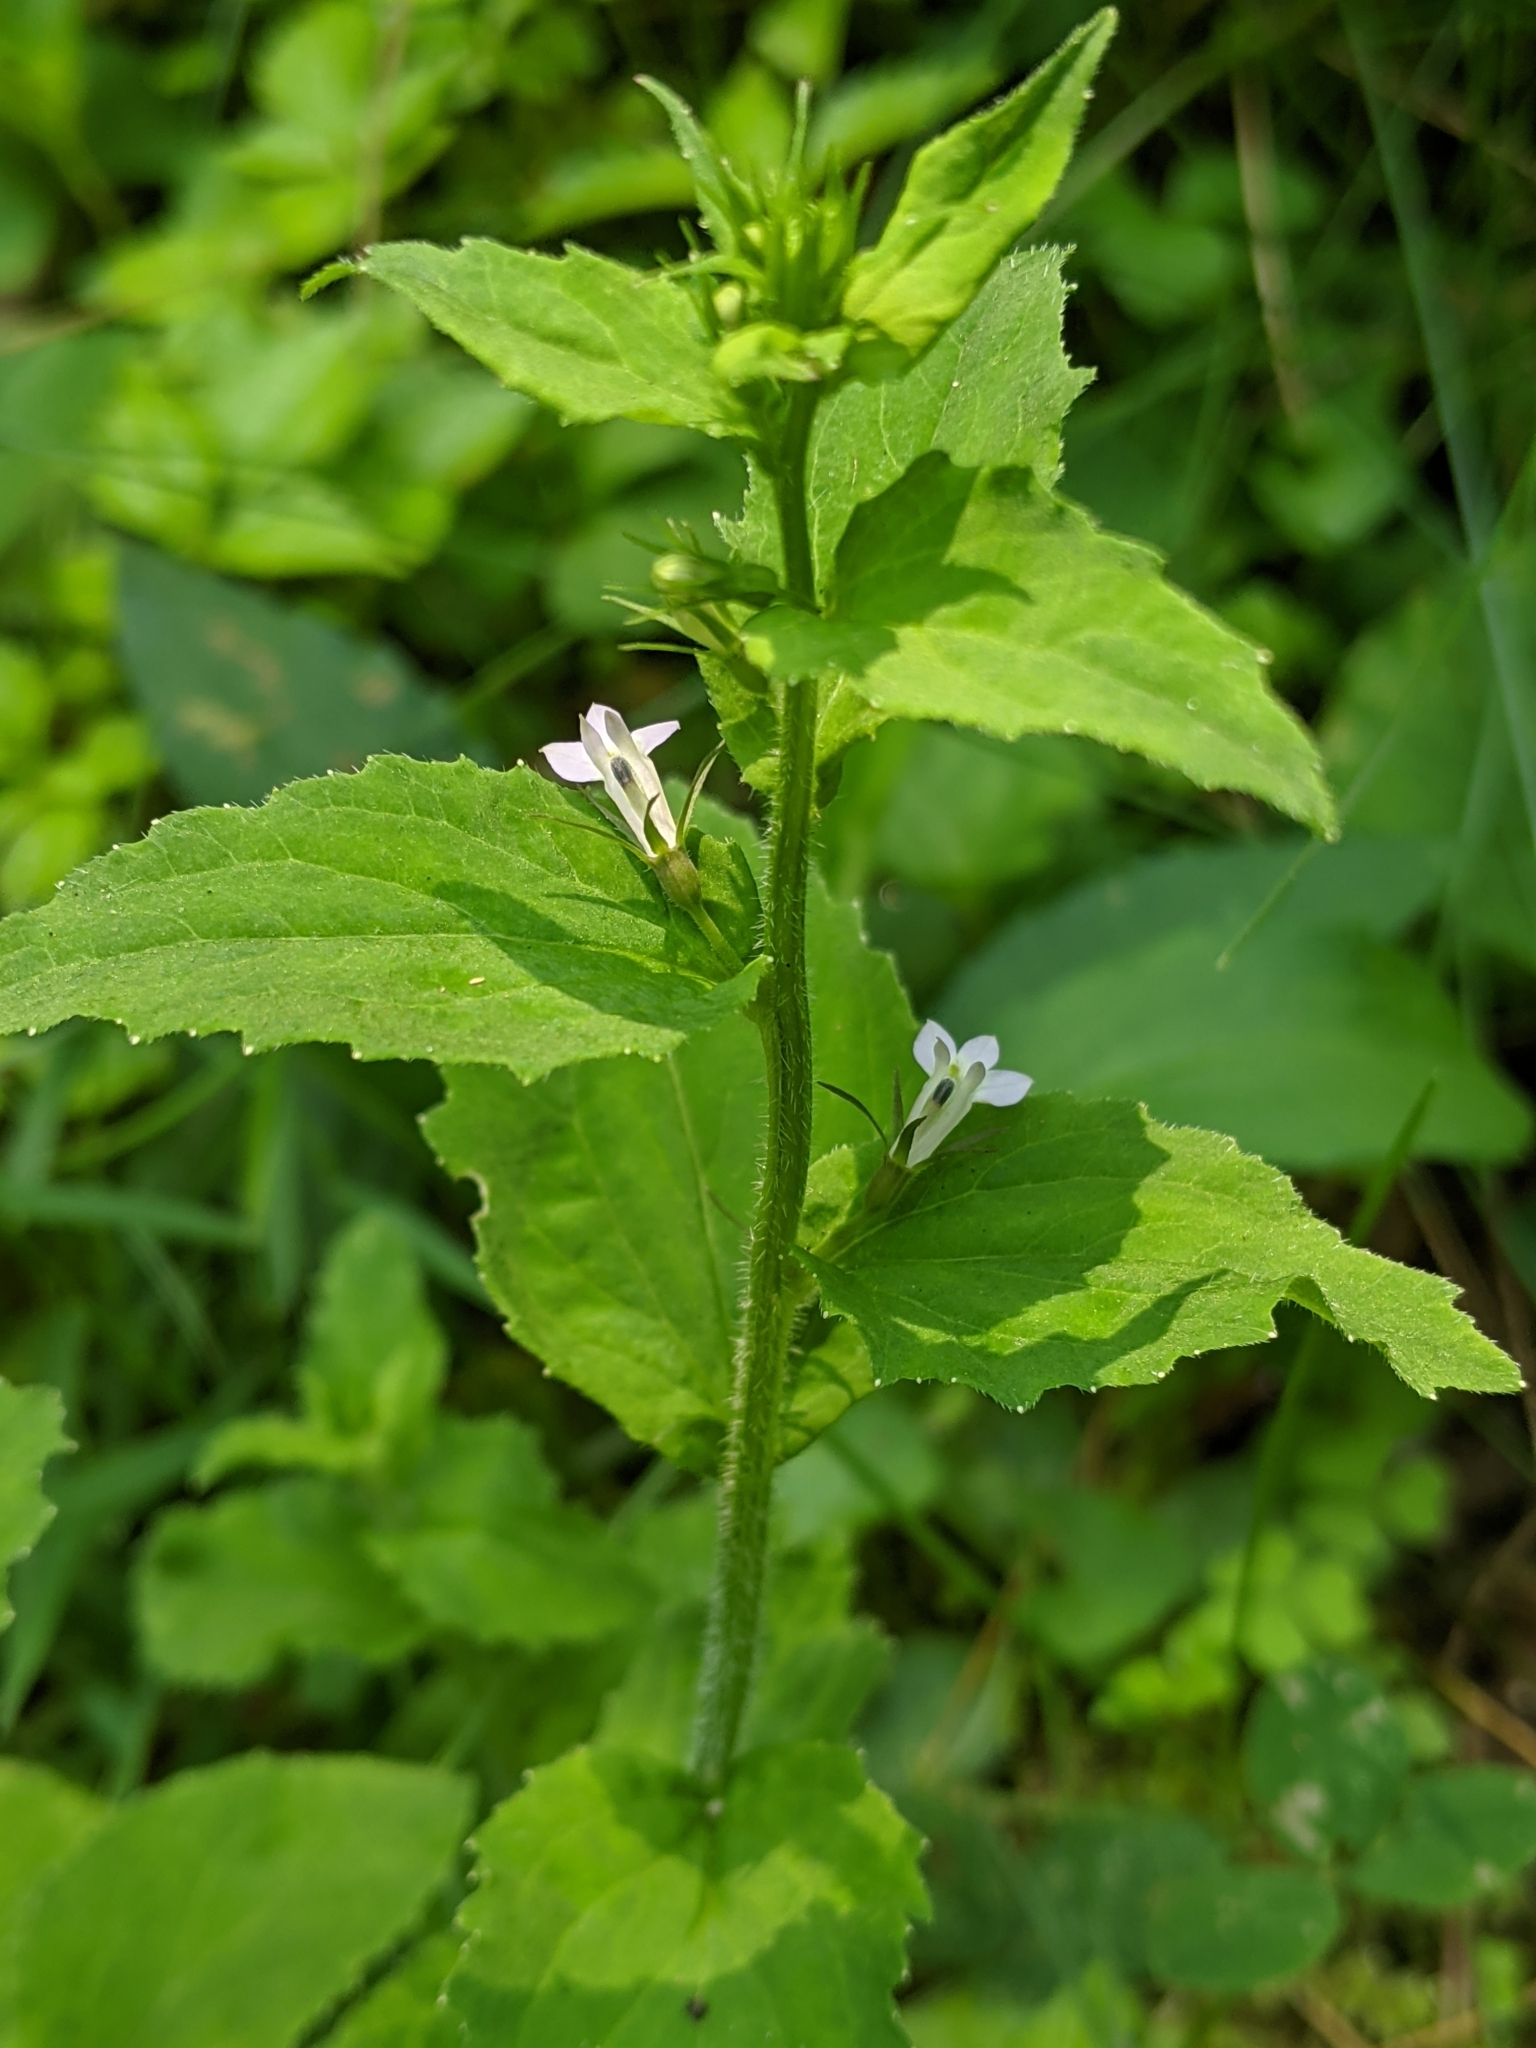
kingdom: Plantae
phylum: Tracheophyta
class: Magnoliopsida
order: Asterales
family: Campanulaceae
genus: Lobelia
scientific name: Lobelia inflata
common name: Indian tobacco
